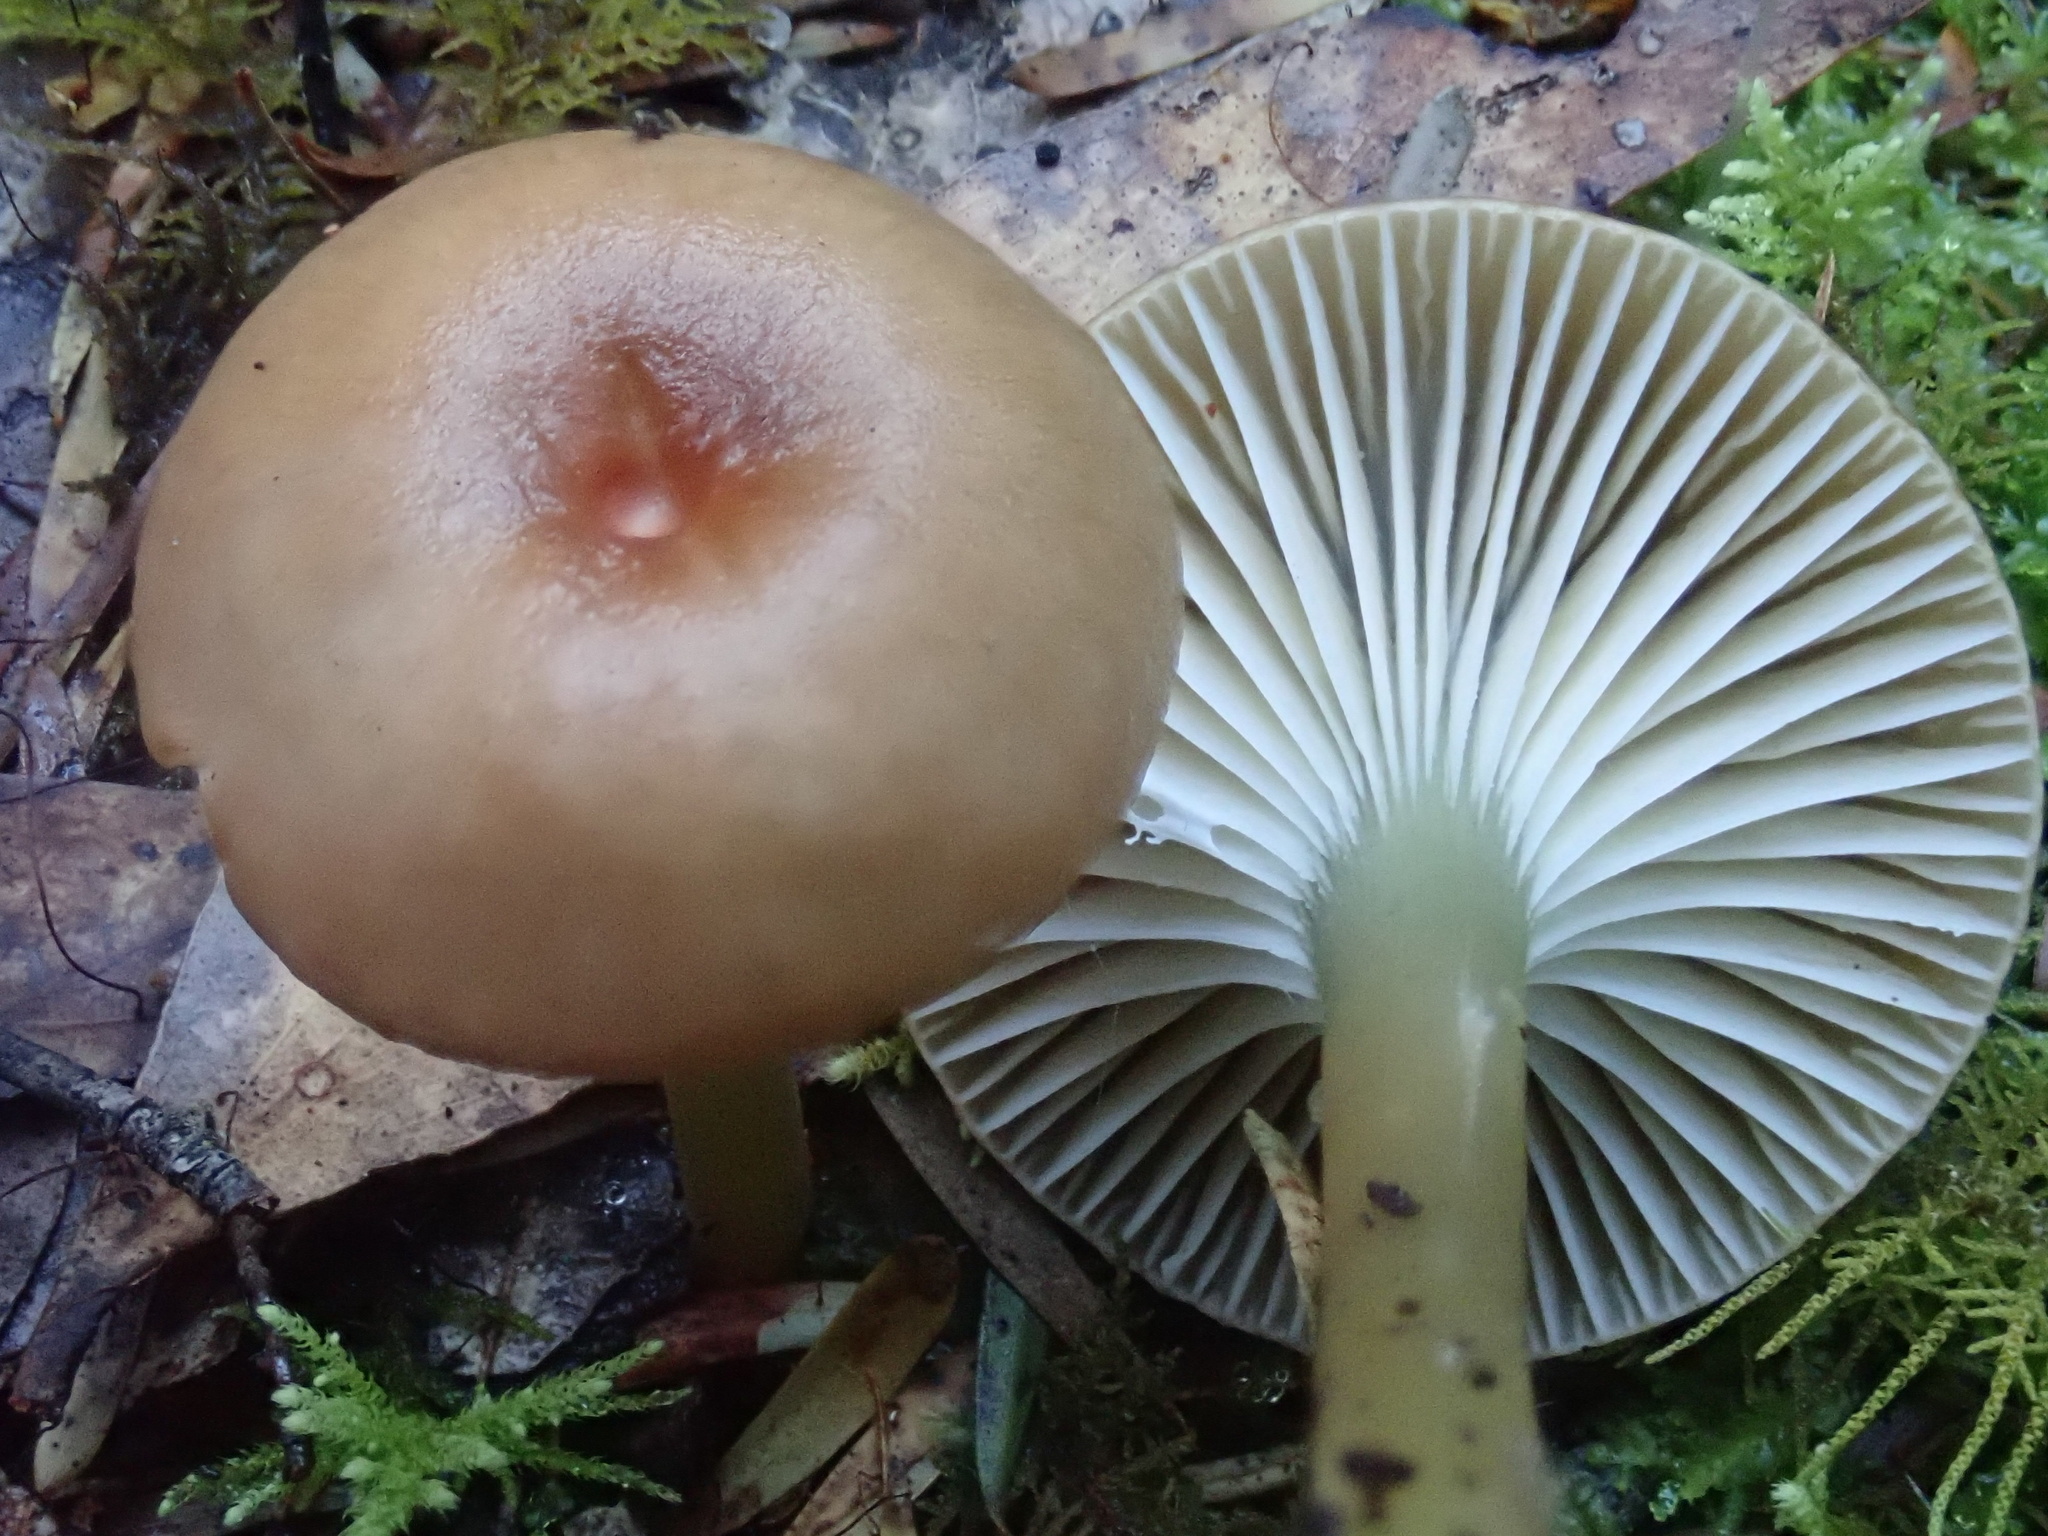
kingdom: Fungi
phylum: Basidiomycota
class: Agaricomycetes
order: Agaricales
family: Hygrophoraceae
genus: Gliophorus
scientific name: Gliophorus graminicolor
